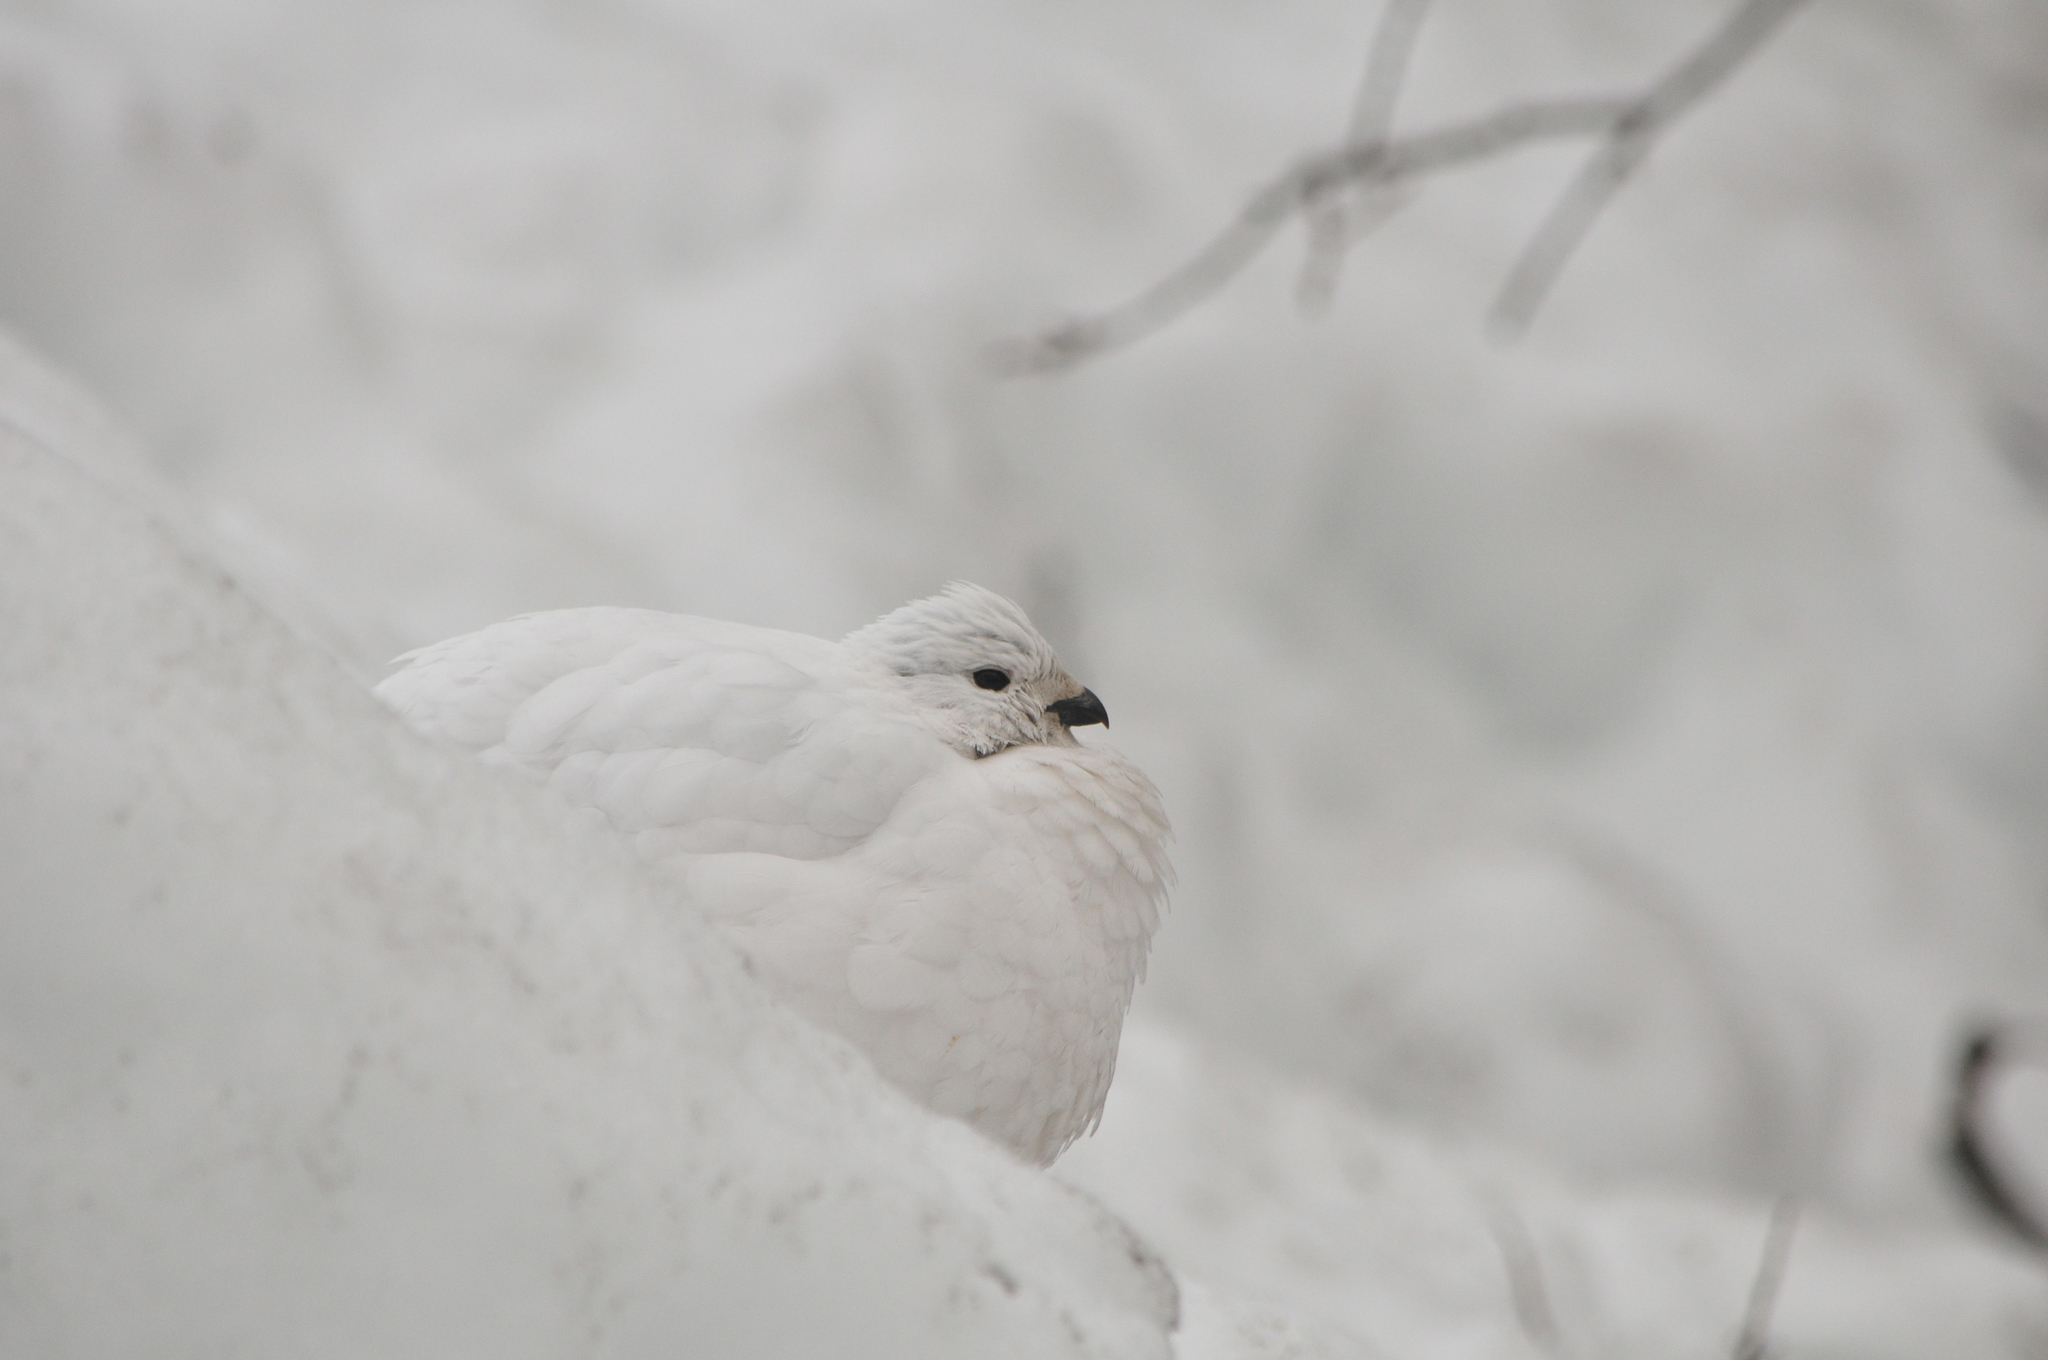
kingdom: Animalia
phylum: Chordata
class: Aves
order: Galliformes
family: Phasianidae
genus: Lagopus
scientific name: Lagopus lagopus
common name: Willow ptarmigan
